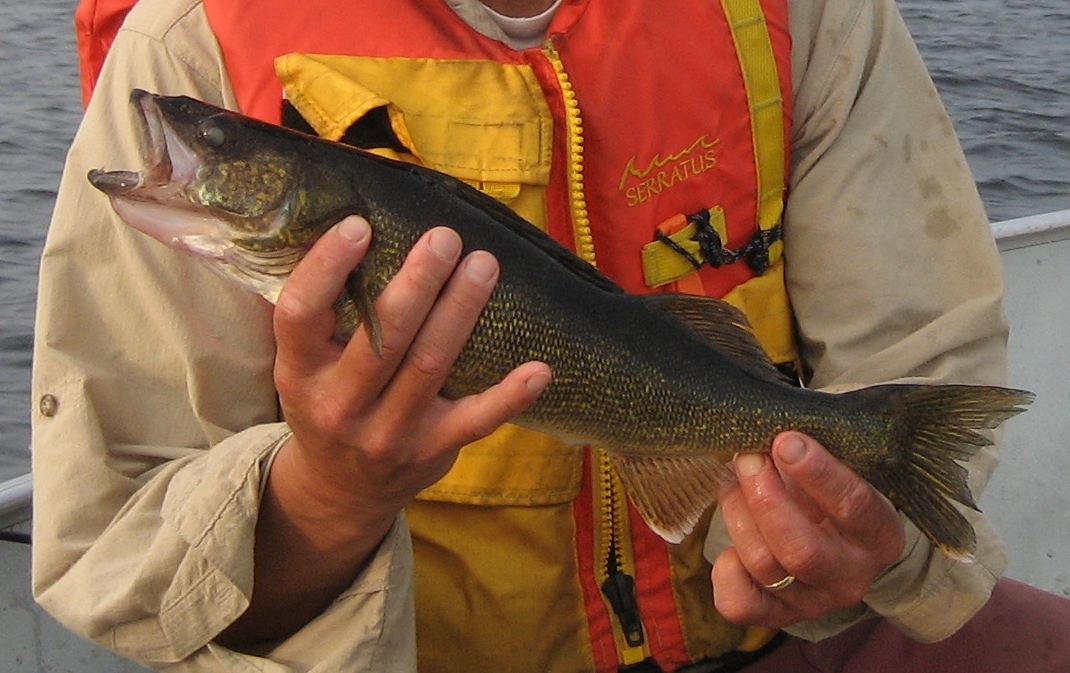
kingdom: Animalia
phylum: Chordata
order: Perciformes
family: Percidae
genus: Sander
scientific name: Sander vitreus
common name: Walleye
